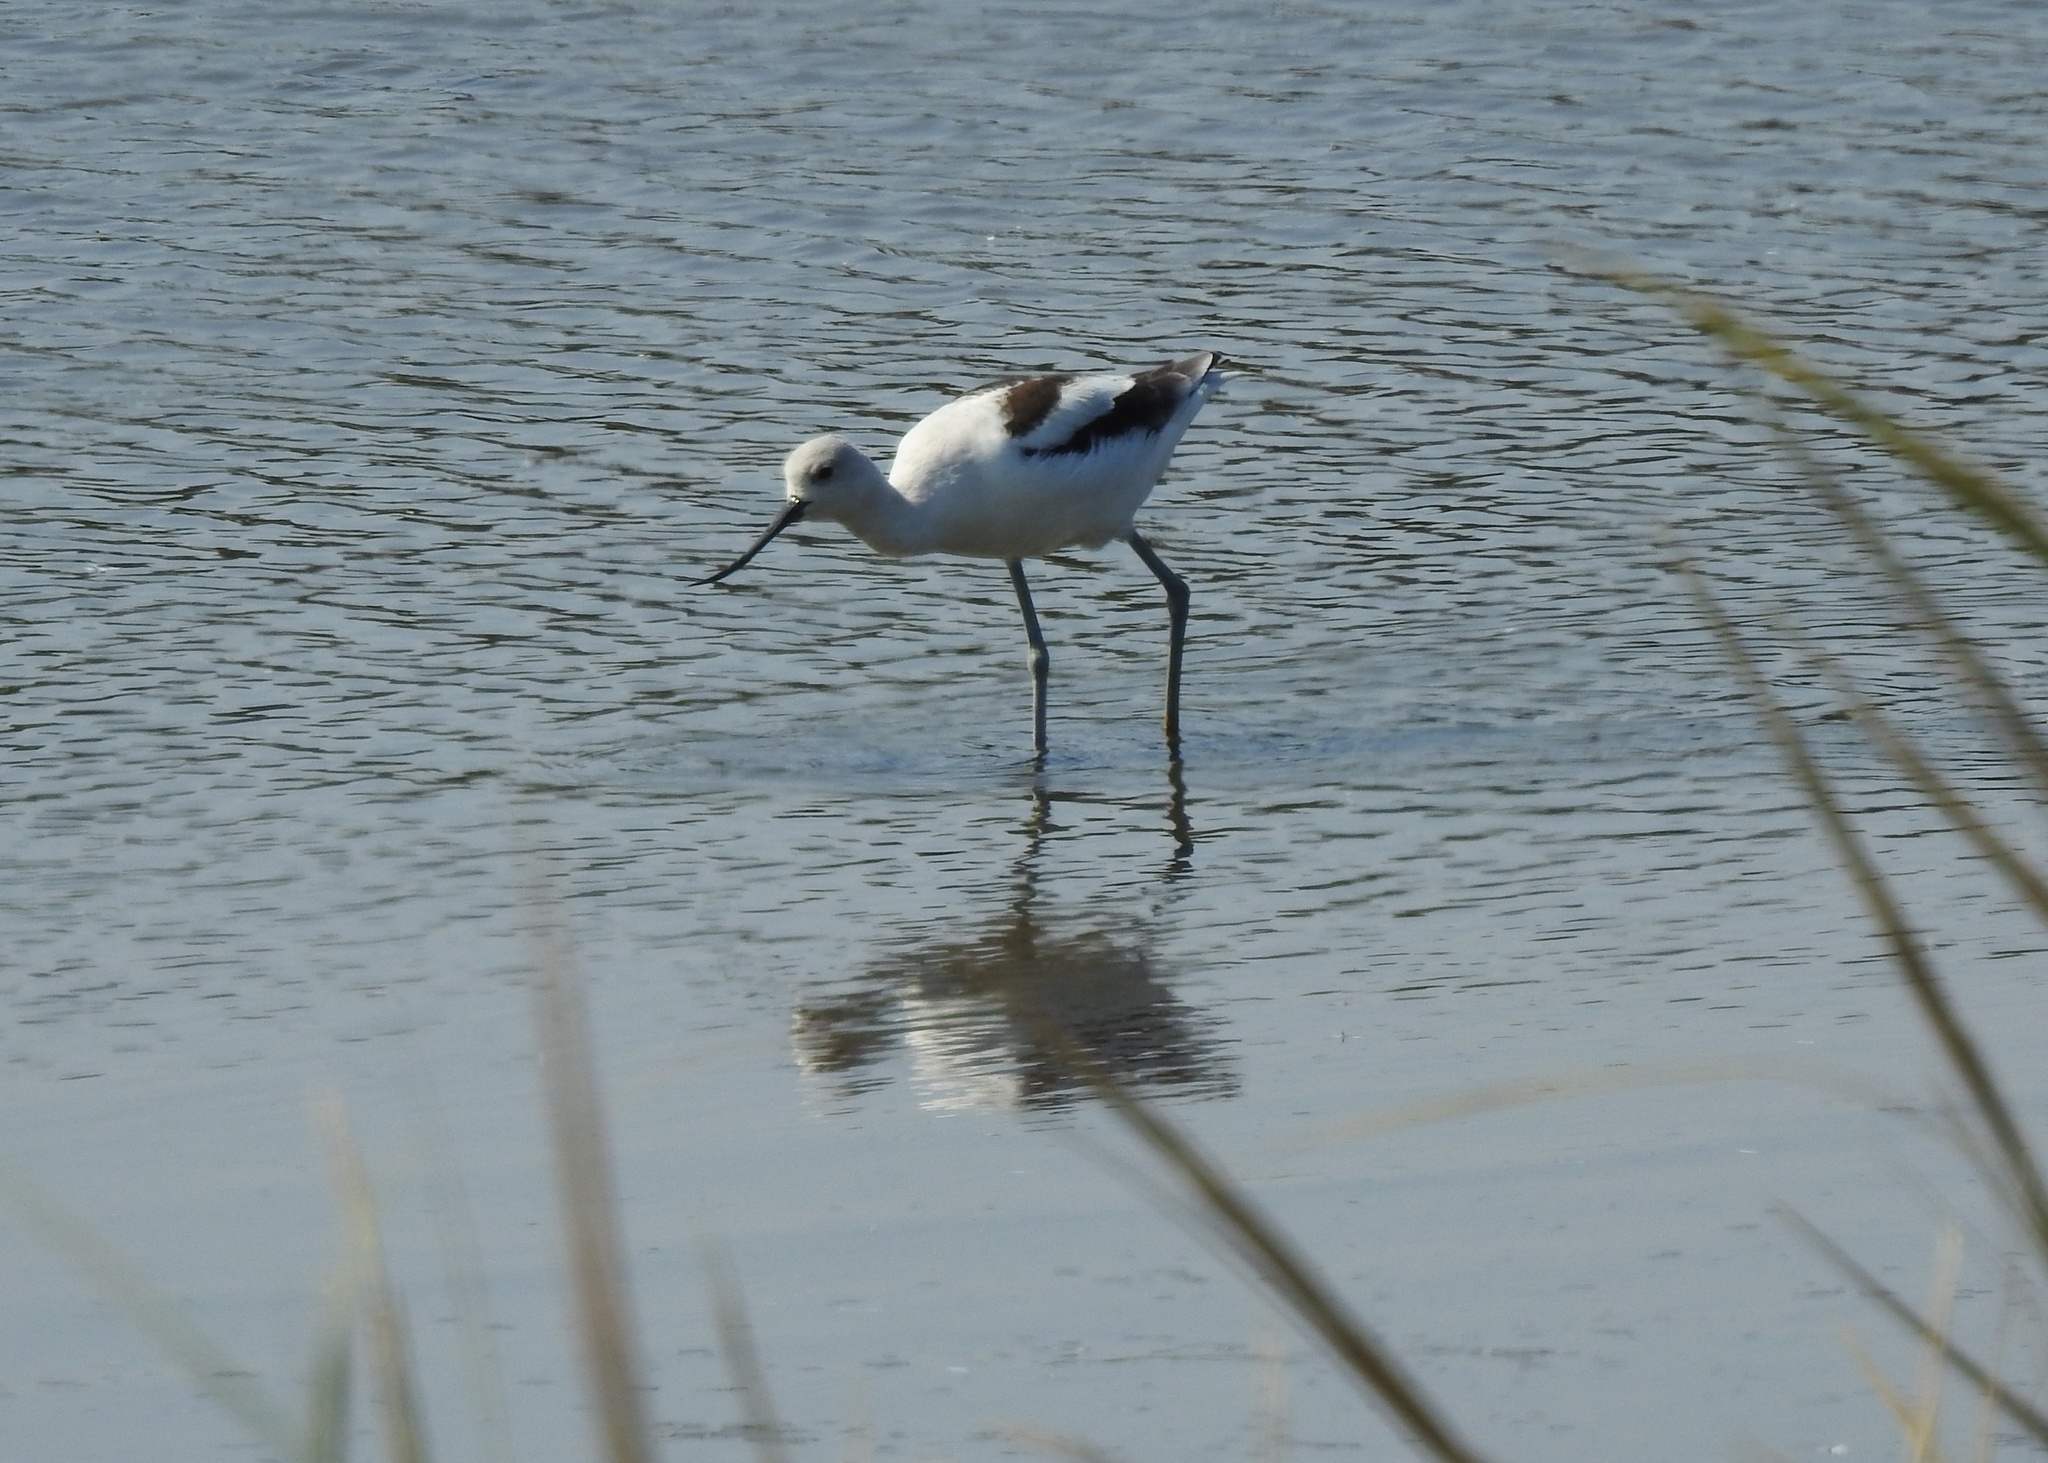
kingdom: Animalia
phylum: Chordata
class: Aves
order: Charadriiformes
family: Recurvirostridae
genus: Recurvirostra
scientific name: Recurvirostra americana
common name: American avocet
